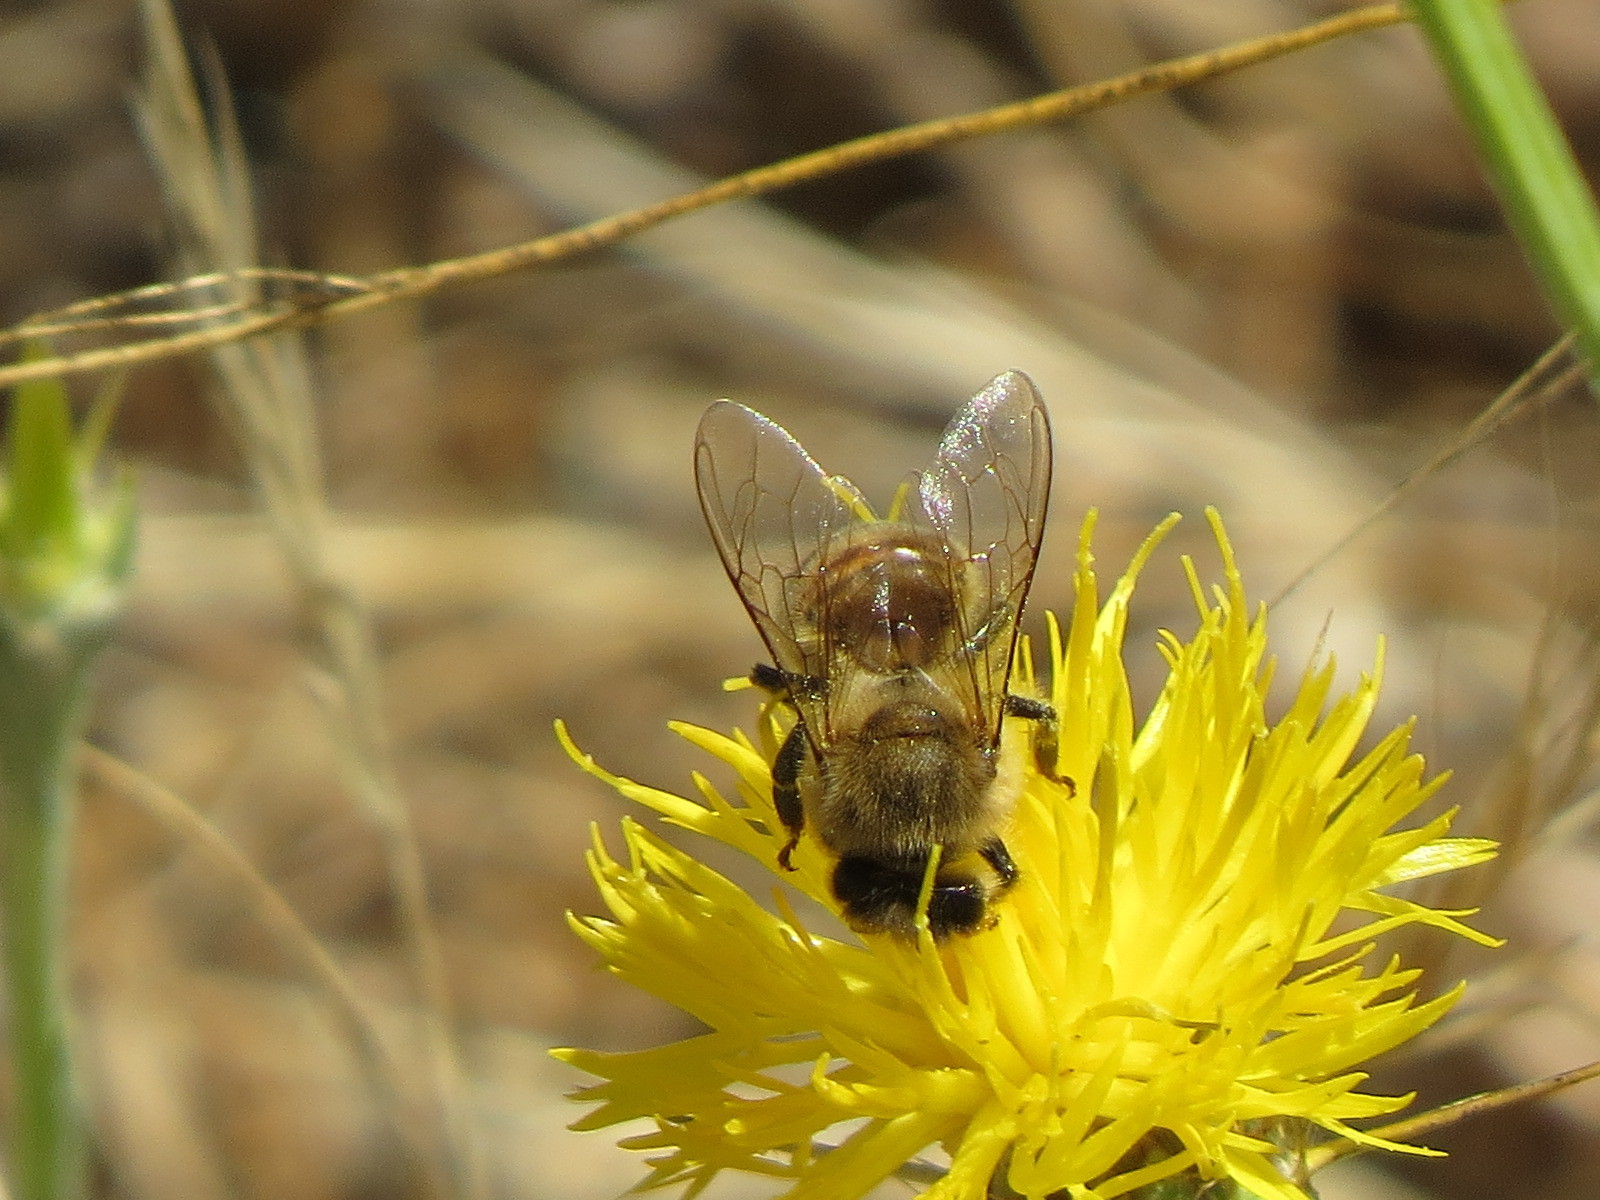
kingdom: Animalia
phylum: Arthropoda
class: Insecta
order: Hymenoptera
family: Apidae
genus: Apis
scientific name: Apis mellifera
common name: Honey bee
